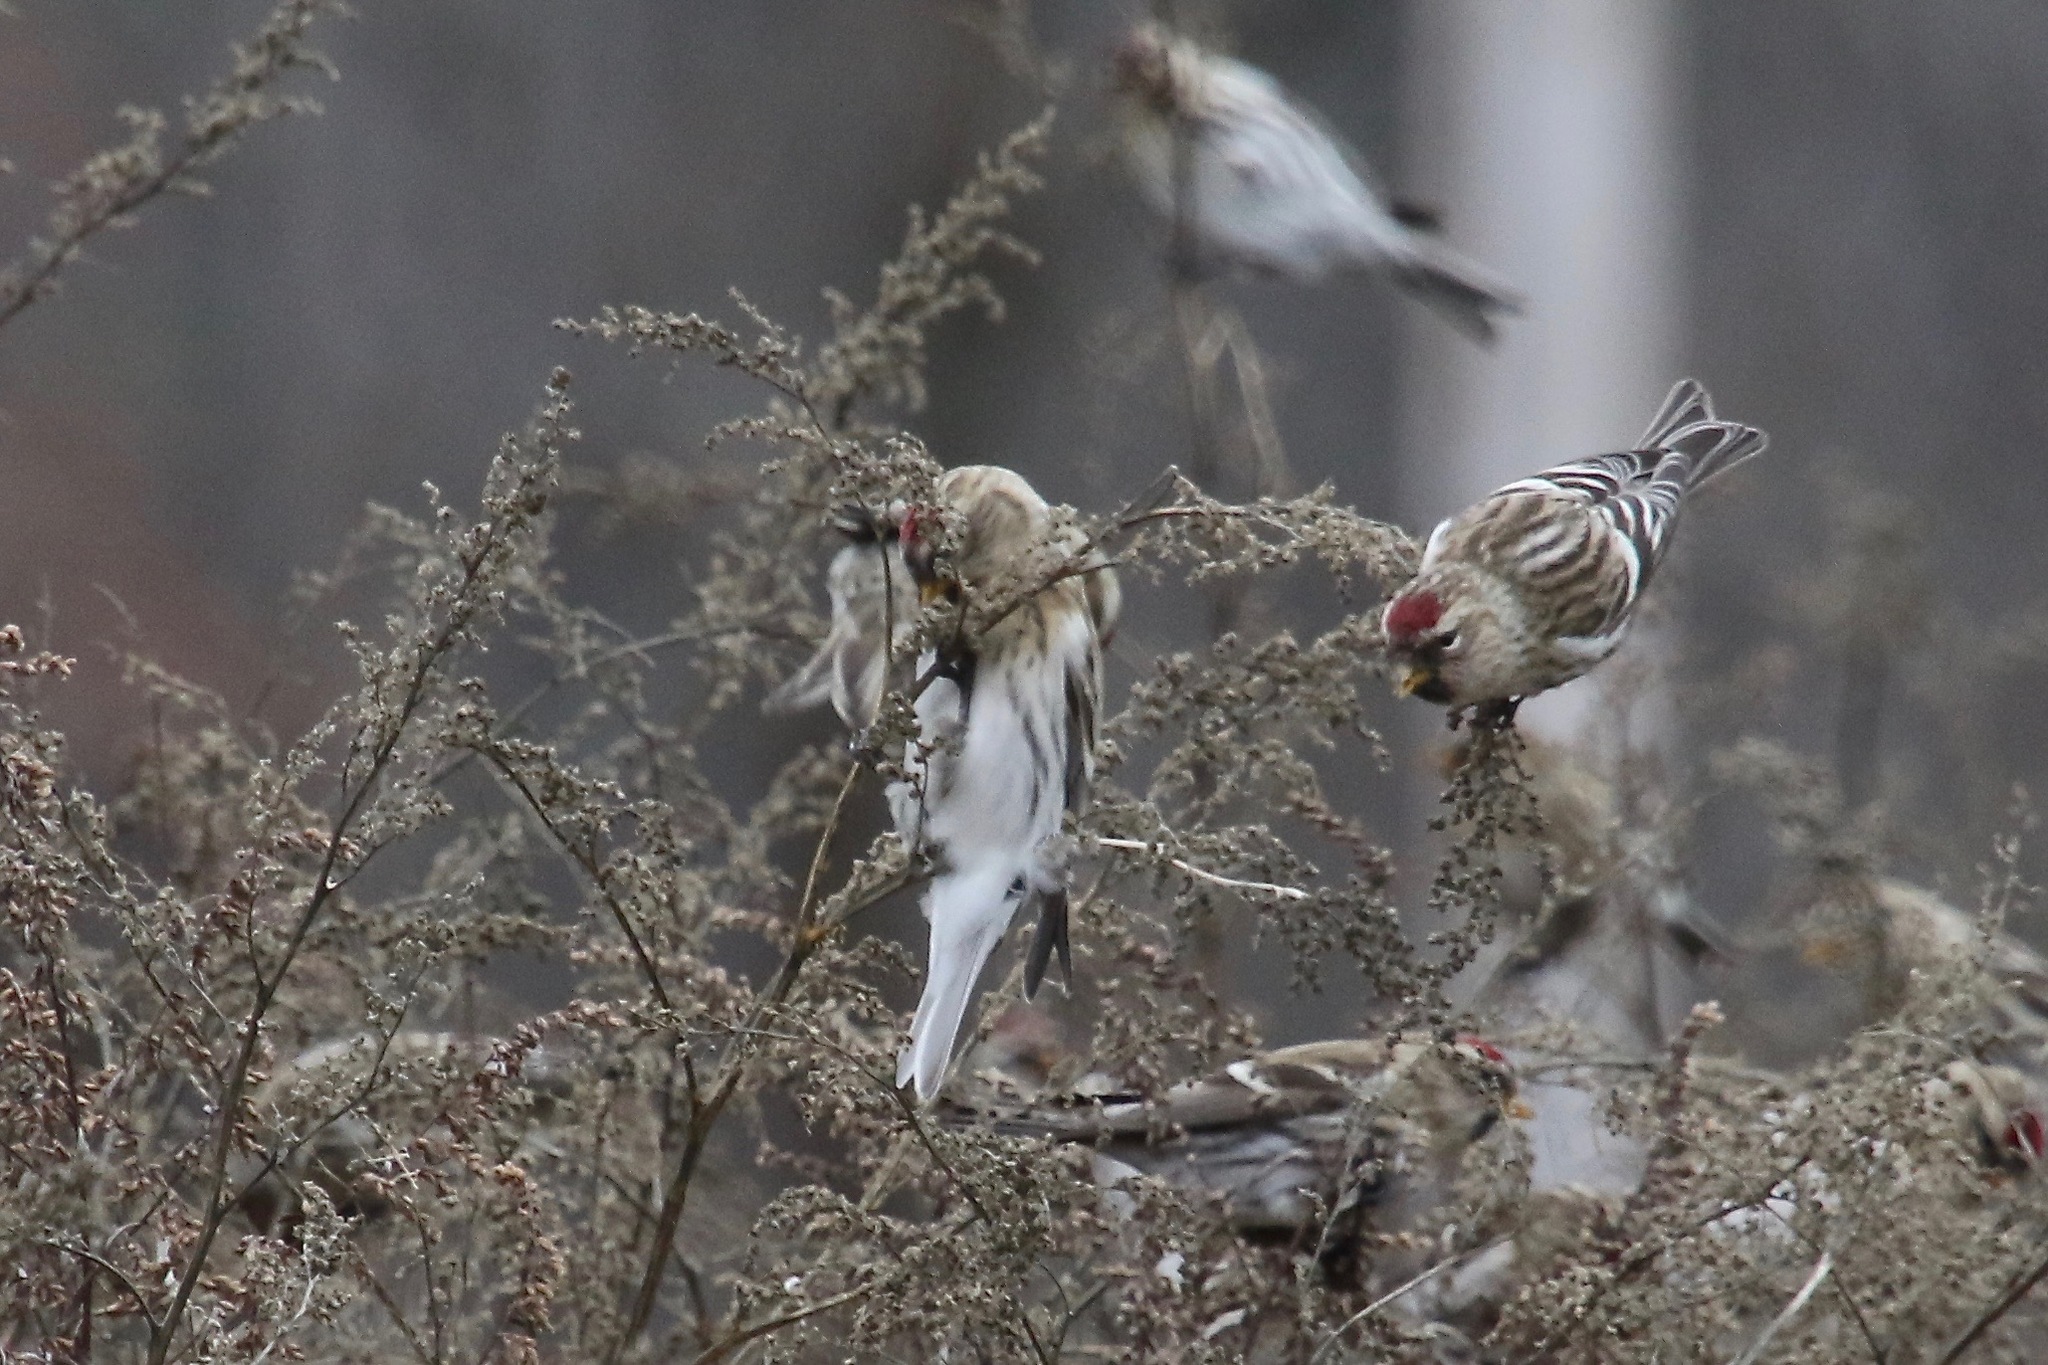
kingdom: Animalia
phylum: Chordata
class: Aves
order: Passeriformes
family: Fringillidae
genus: Acanthis
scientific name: Acanthis hornemanni
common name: Arctic redpoll
